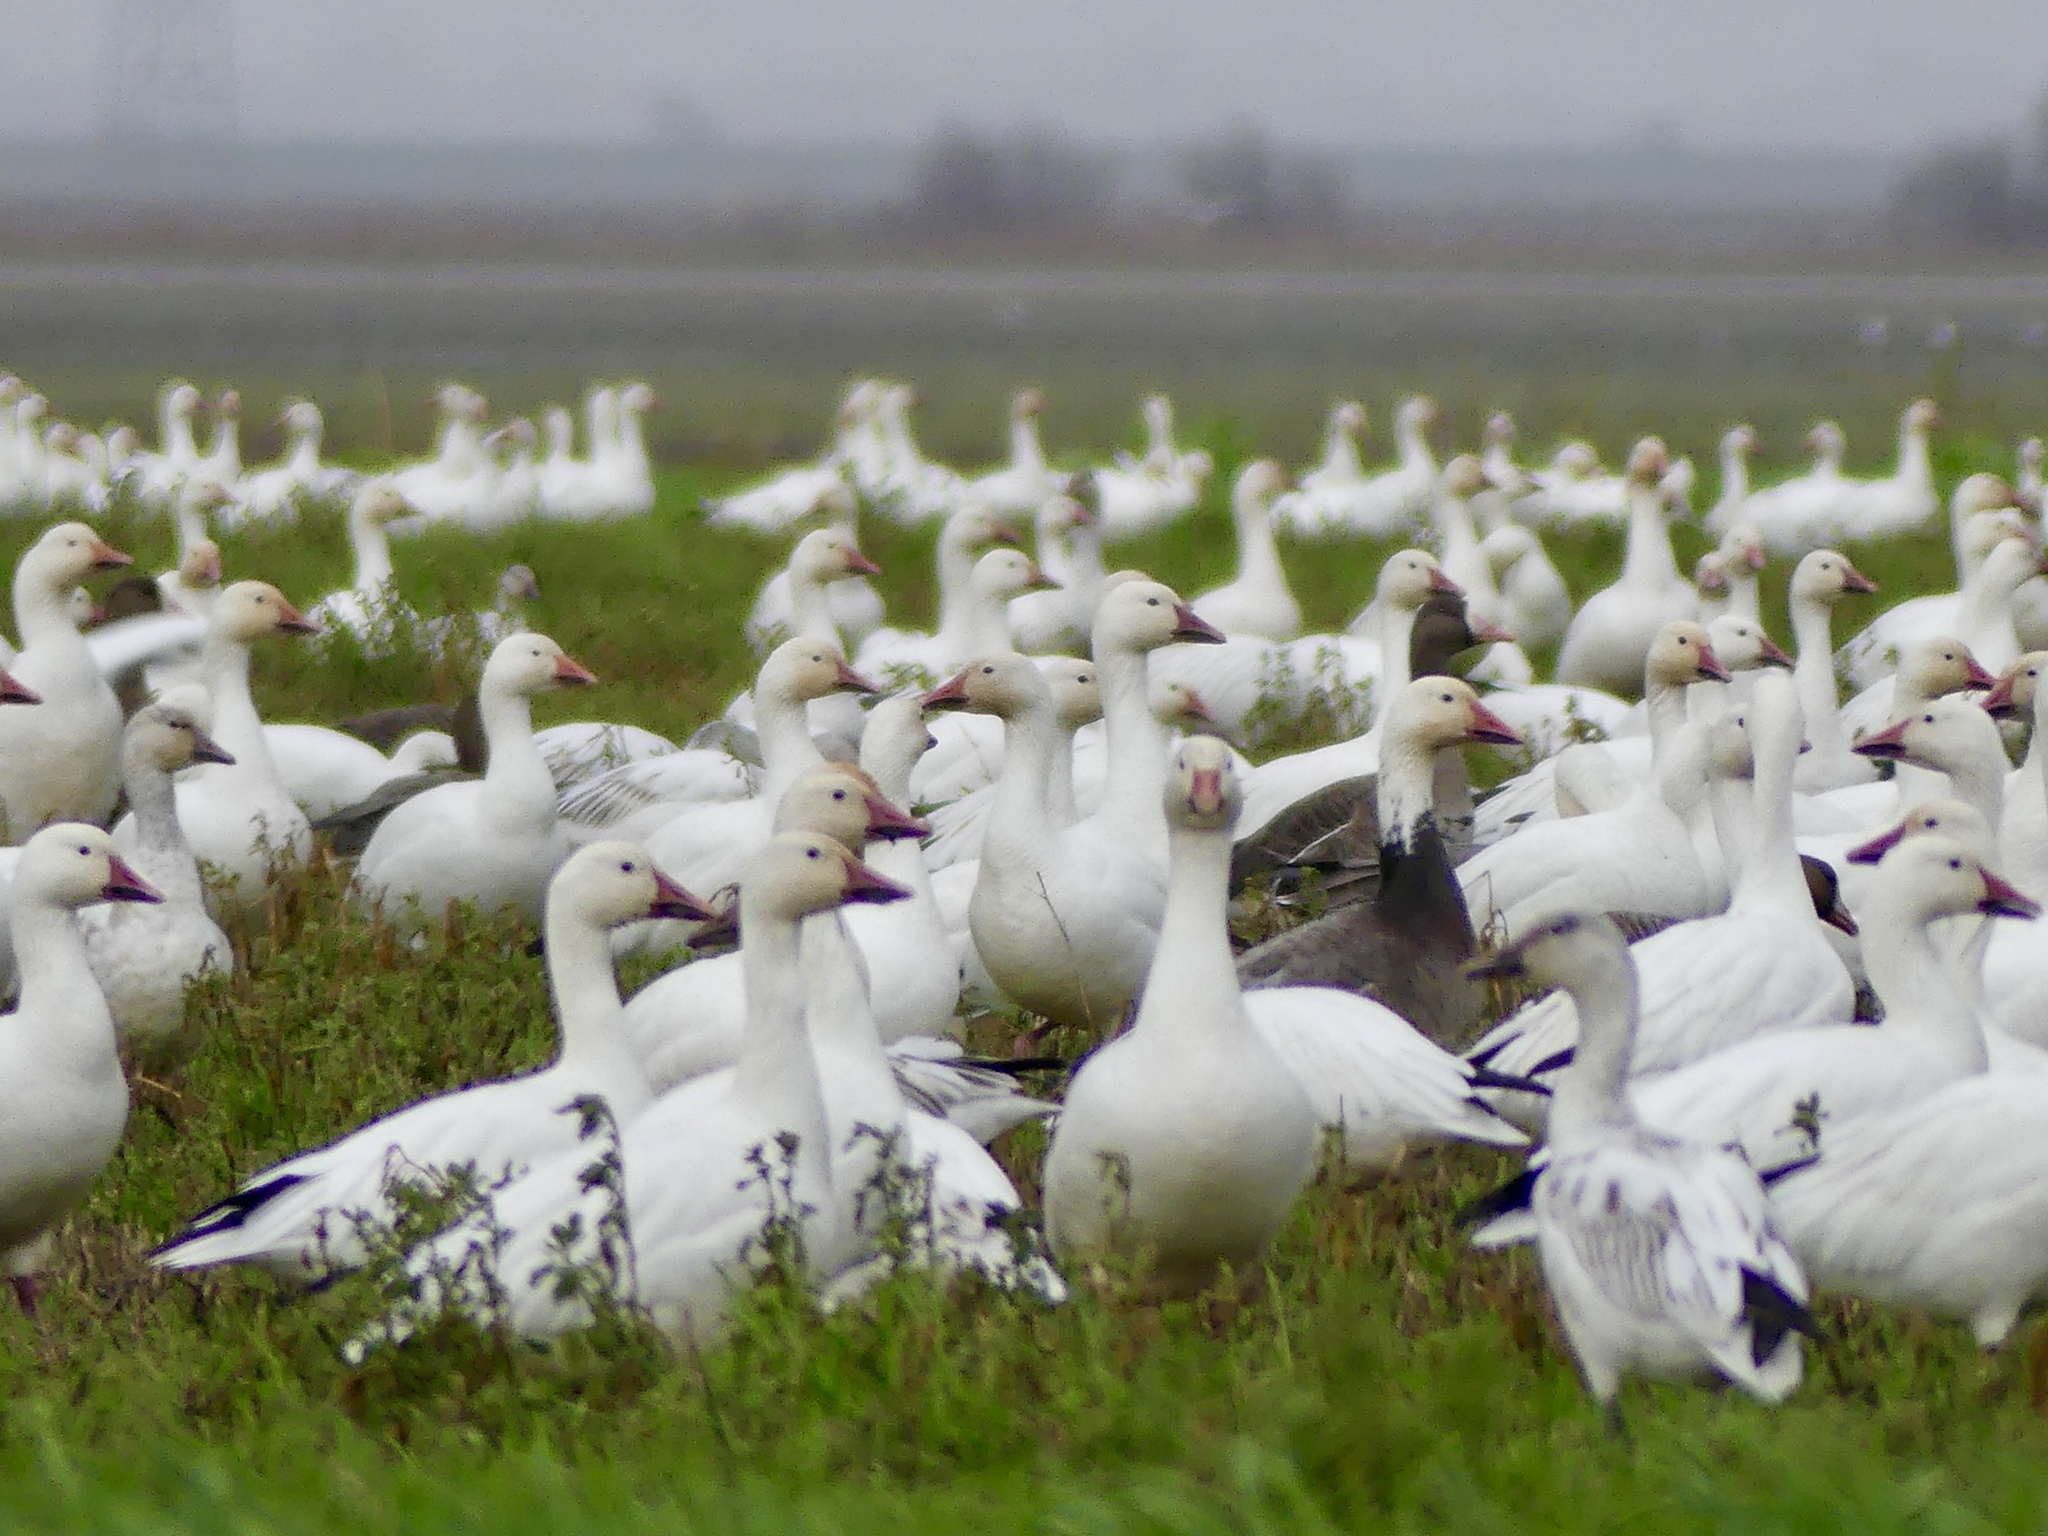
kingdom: Animalia
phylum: Chordata
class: Aves
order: Anseriformes
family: Anatidae
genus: Anser
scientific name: Anser caerulescens
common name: Snow goose
